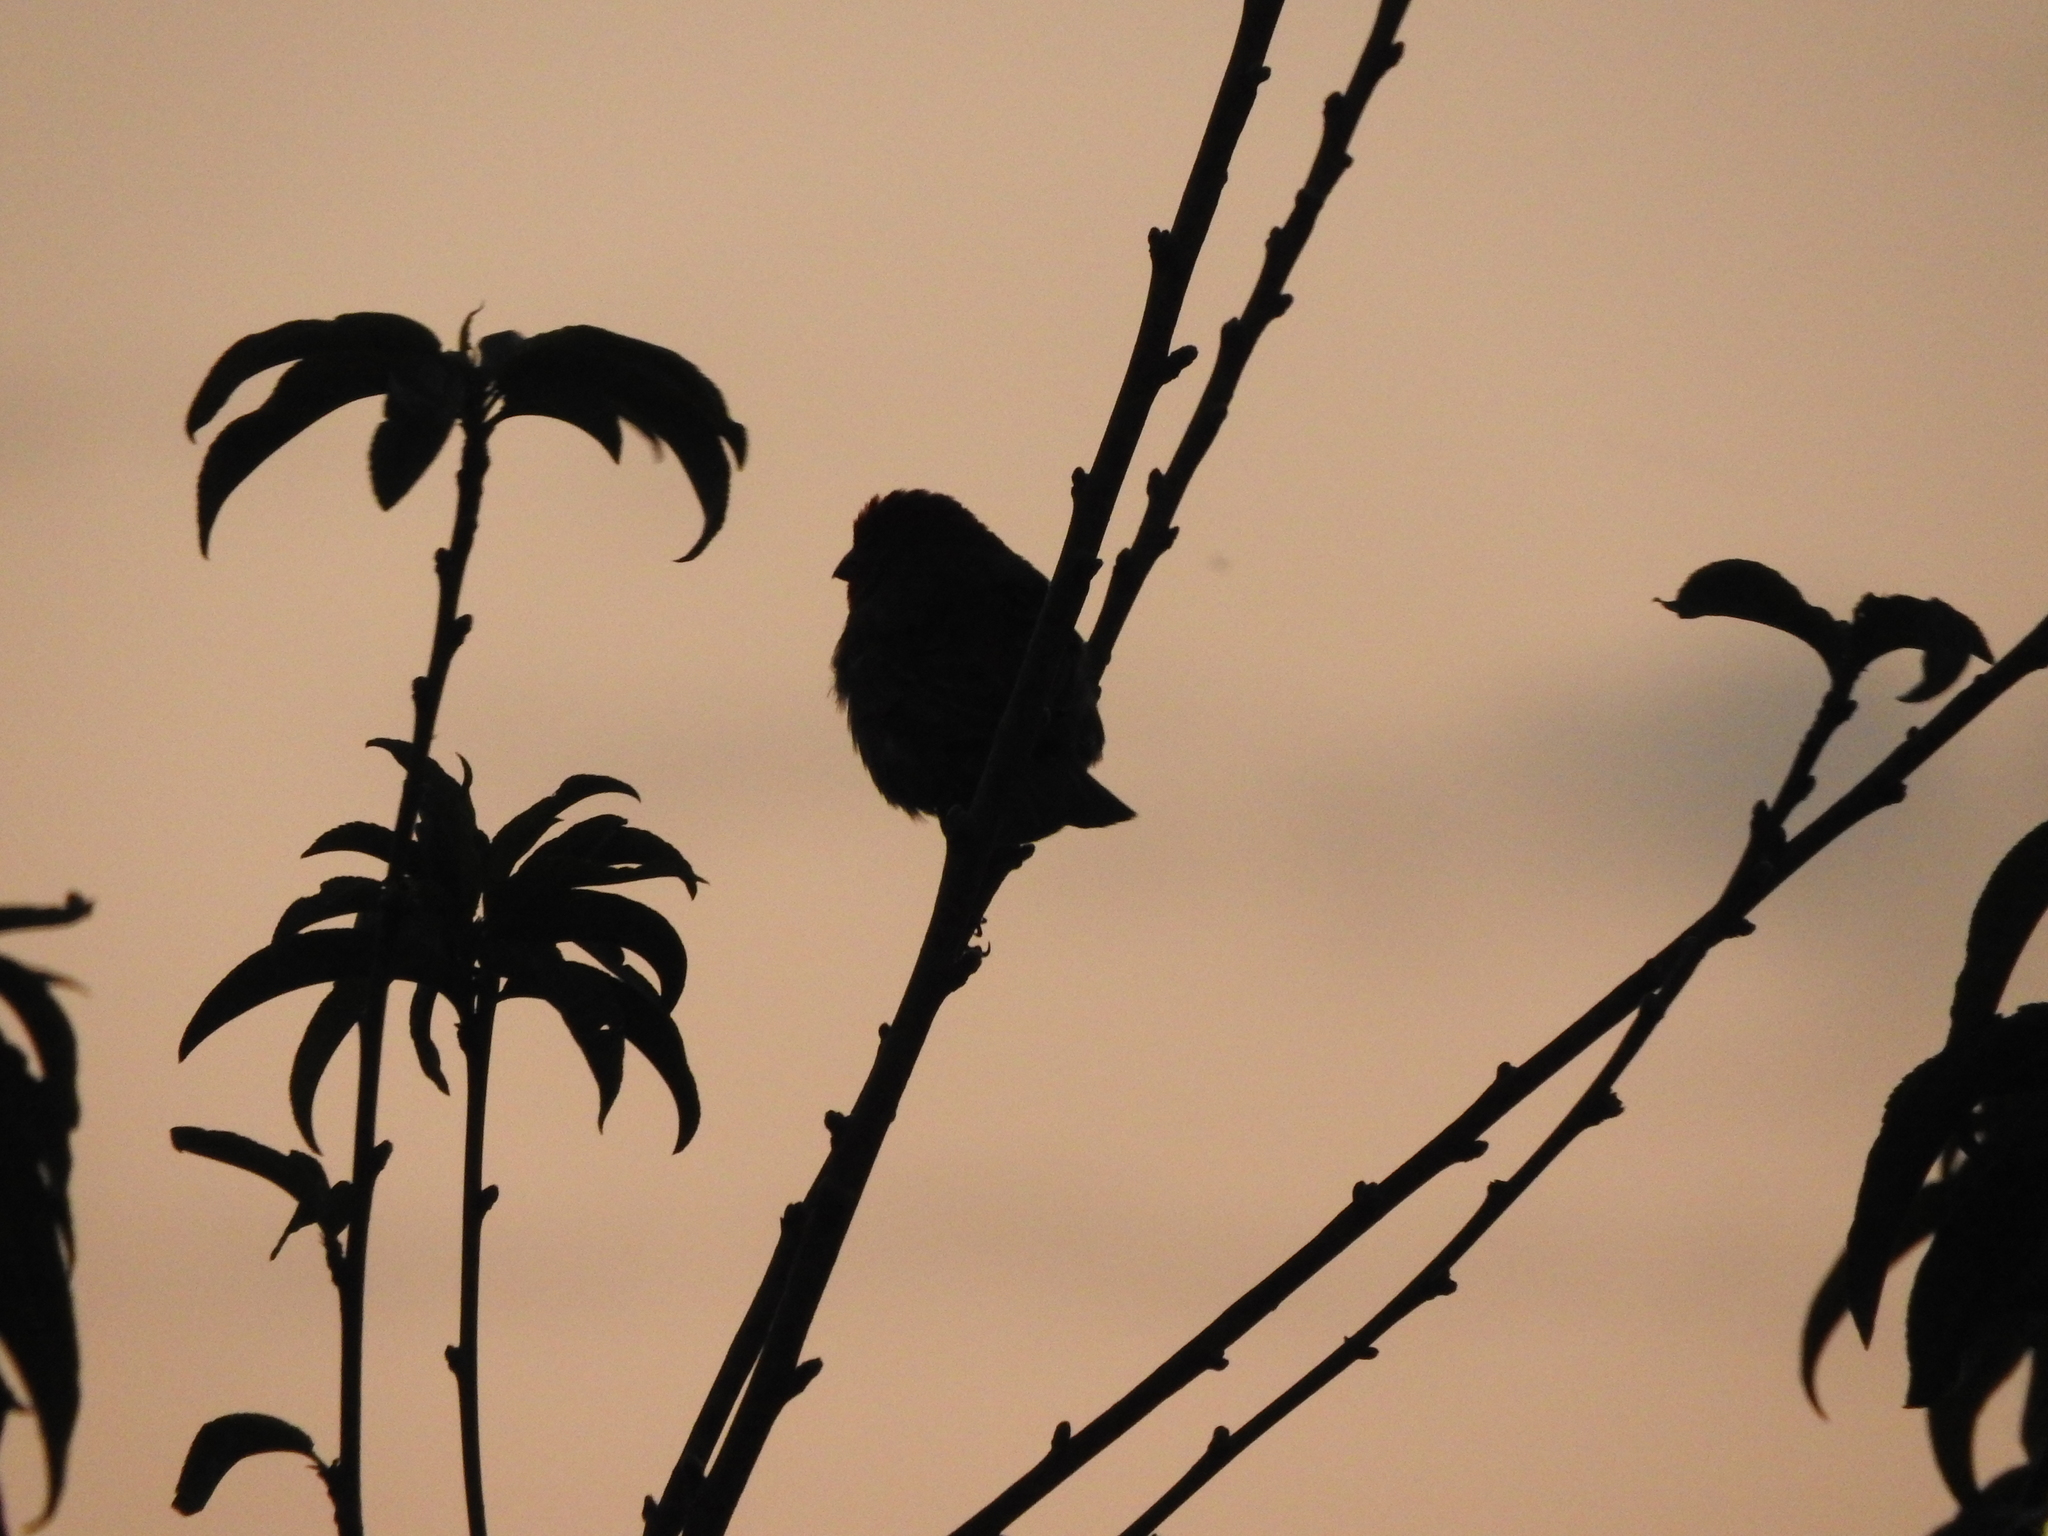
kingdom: Animalia
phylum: Chordata
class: Aves
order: Passeriformes
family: Fringillidae
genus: Haemorhous
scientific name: Haemorhous mexicanus
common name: House finch
